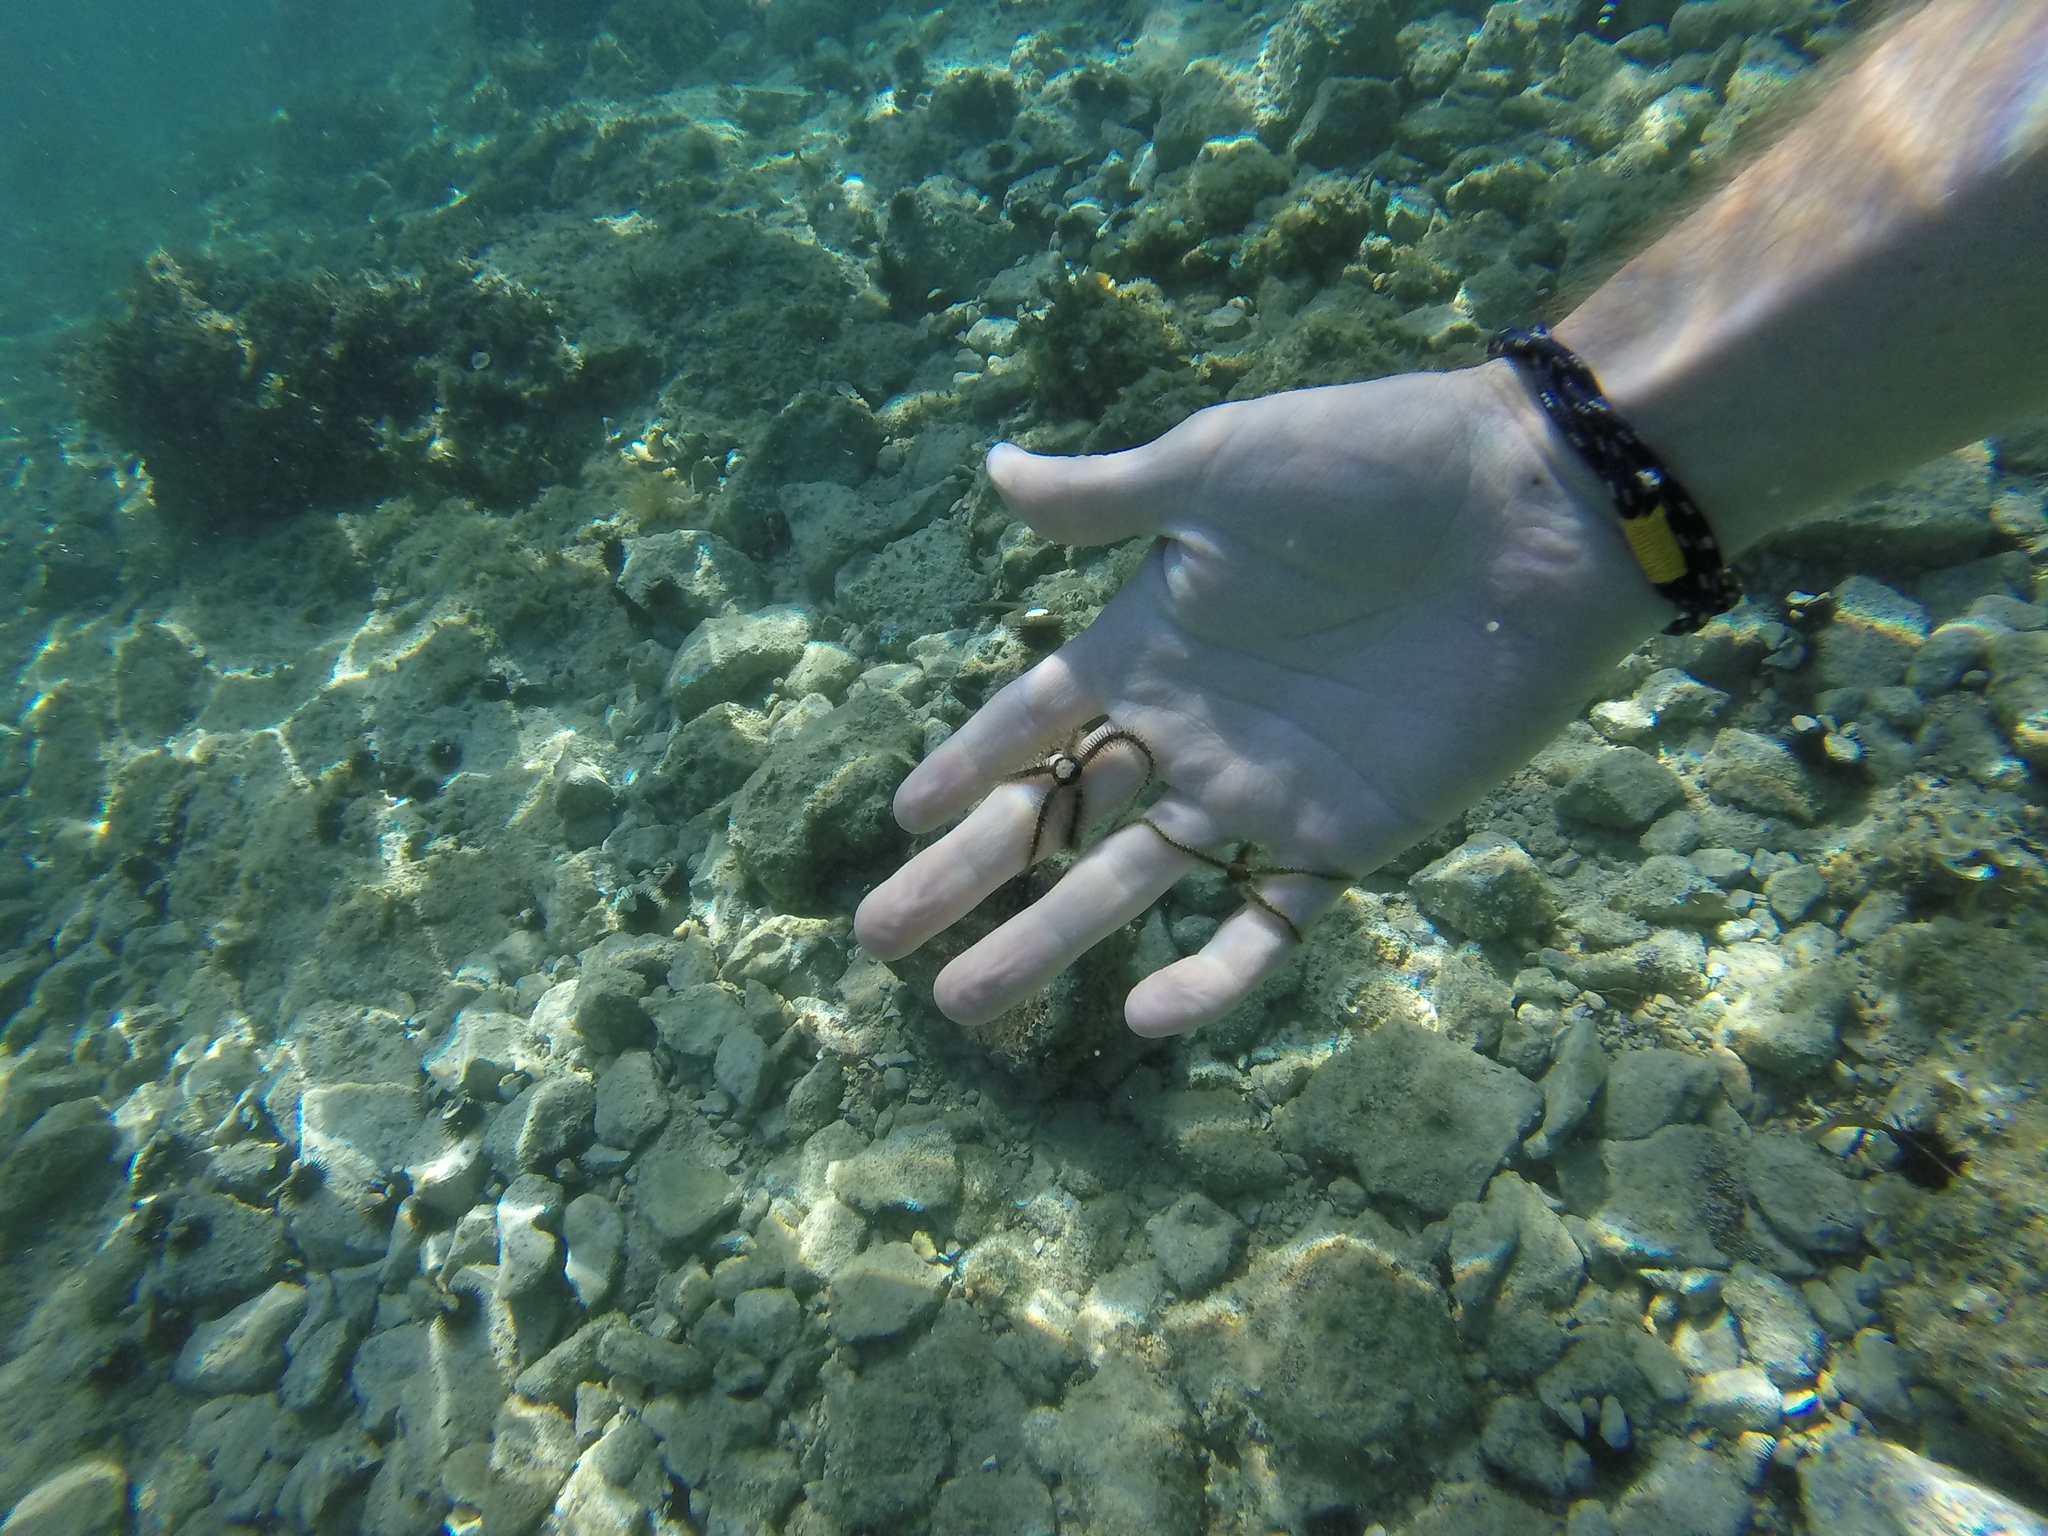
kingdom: Animalia
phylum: Echinodermata
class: Ophiuroidea
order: Amphilepidida
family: Ophiotrichidae
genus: Ophiothrix
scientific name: Ophiothrix fragilis
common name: Common brittlestar
